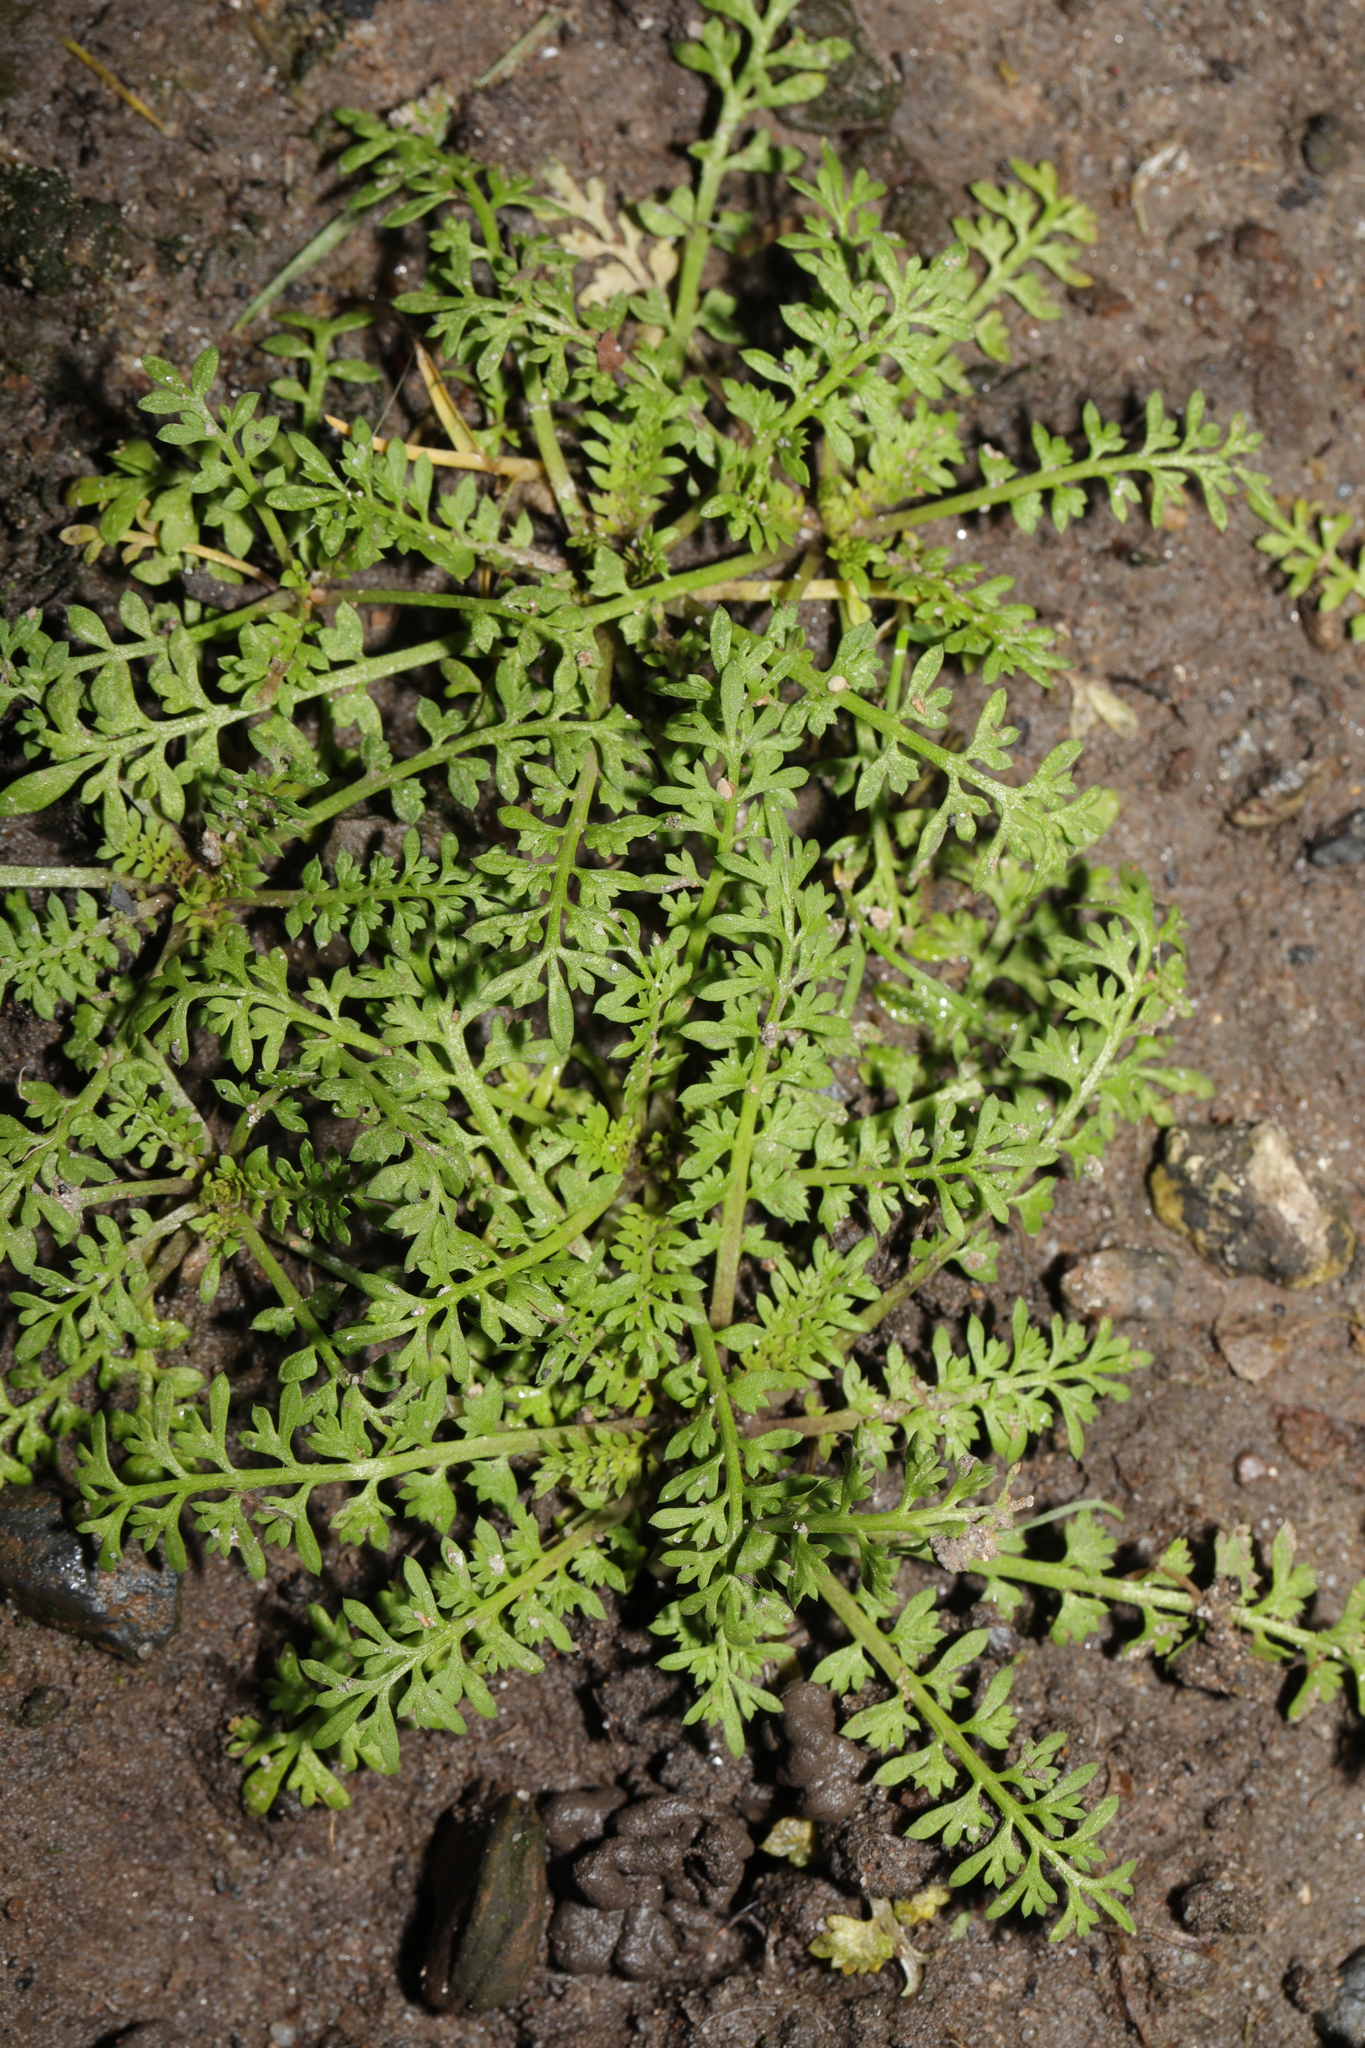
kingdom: Plantae
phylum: Tracheophyta
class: Magnoliopsida
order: Brassicales
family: Brassicaceae
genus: Lepidium
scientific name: Lepidium didymum
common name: Lesser swinecress
